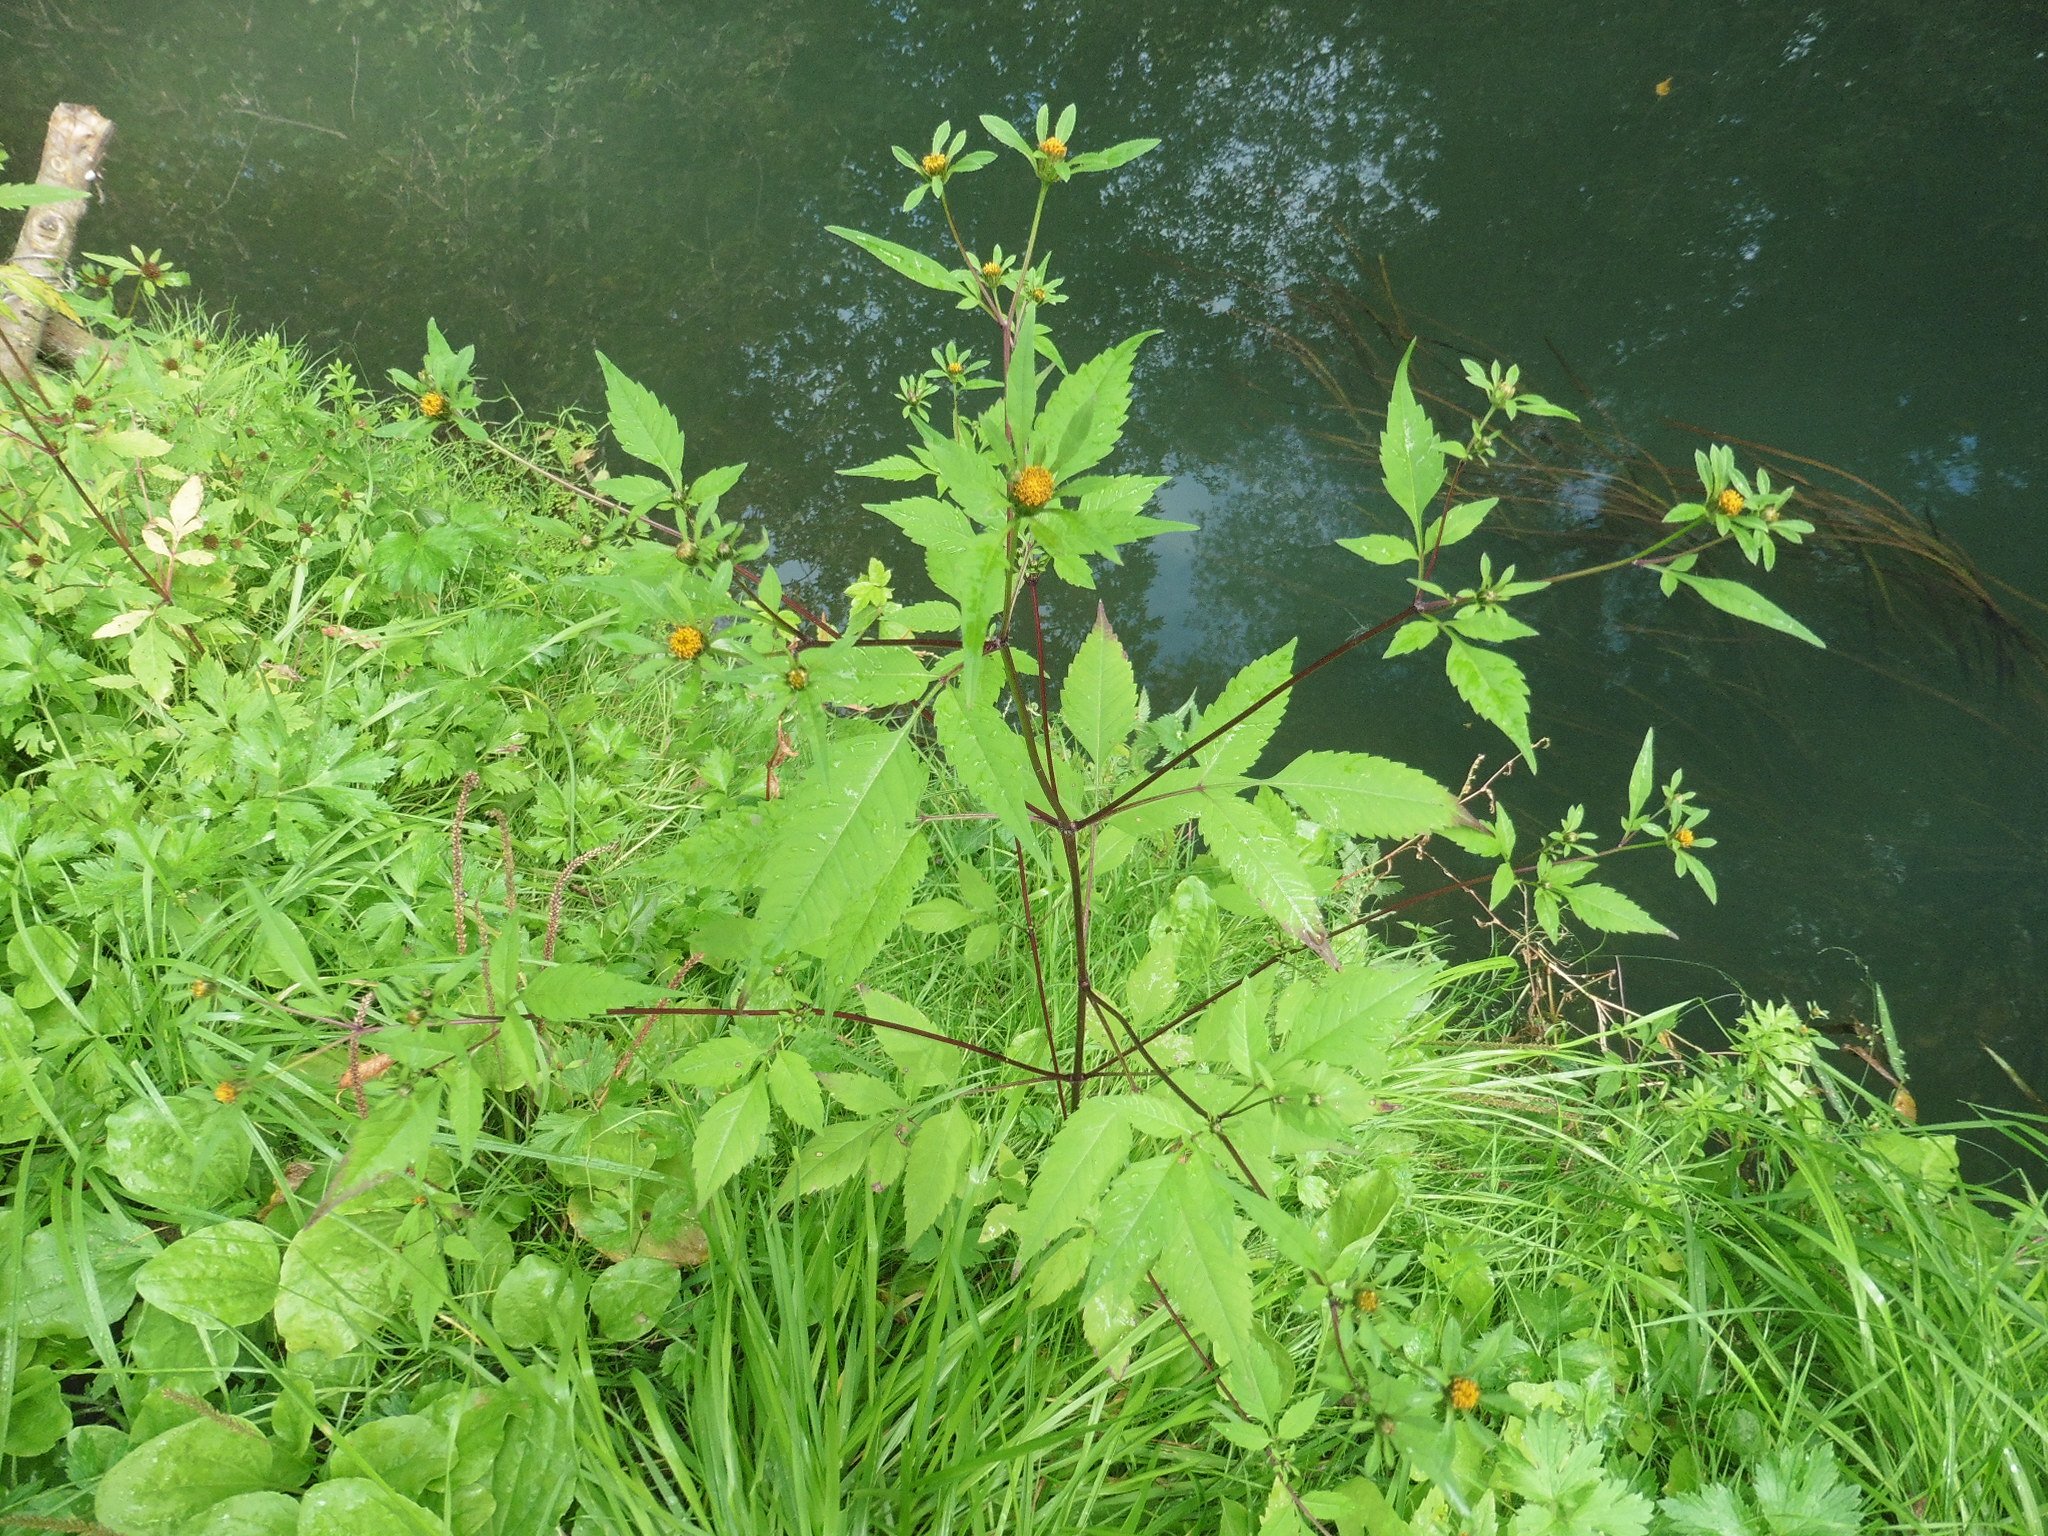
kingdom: Plantae
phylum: Tracheophyta
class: Magnoliopsida
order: Asterales
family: Asteraceae
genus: Bidens
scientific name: Bidens frondosa
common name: Beggarticks
